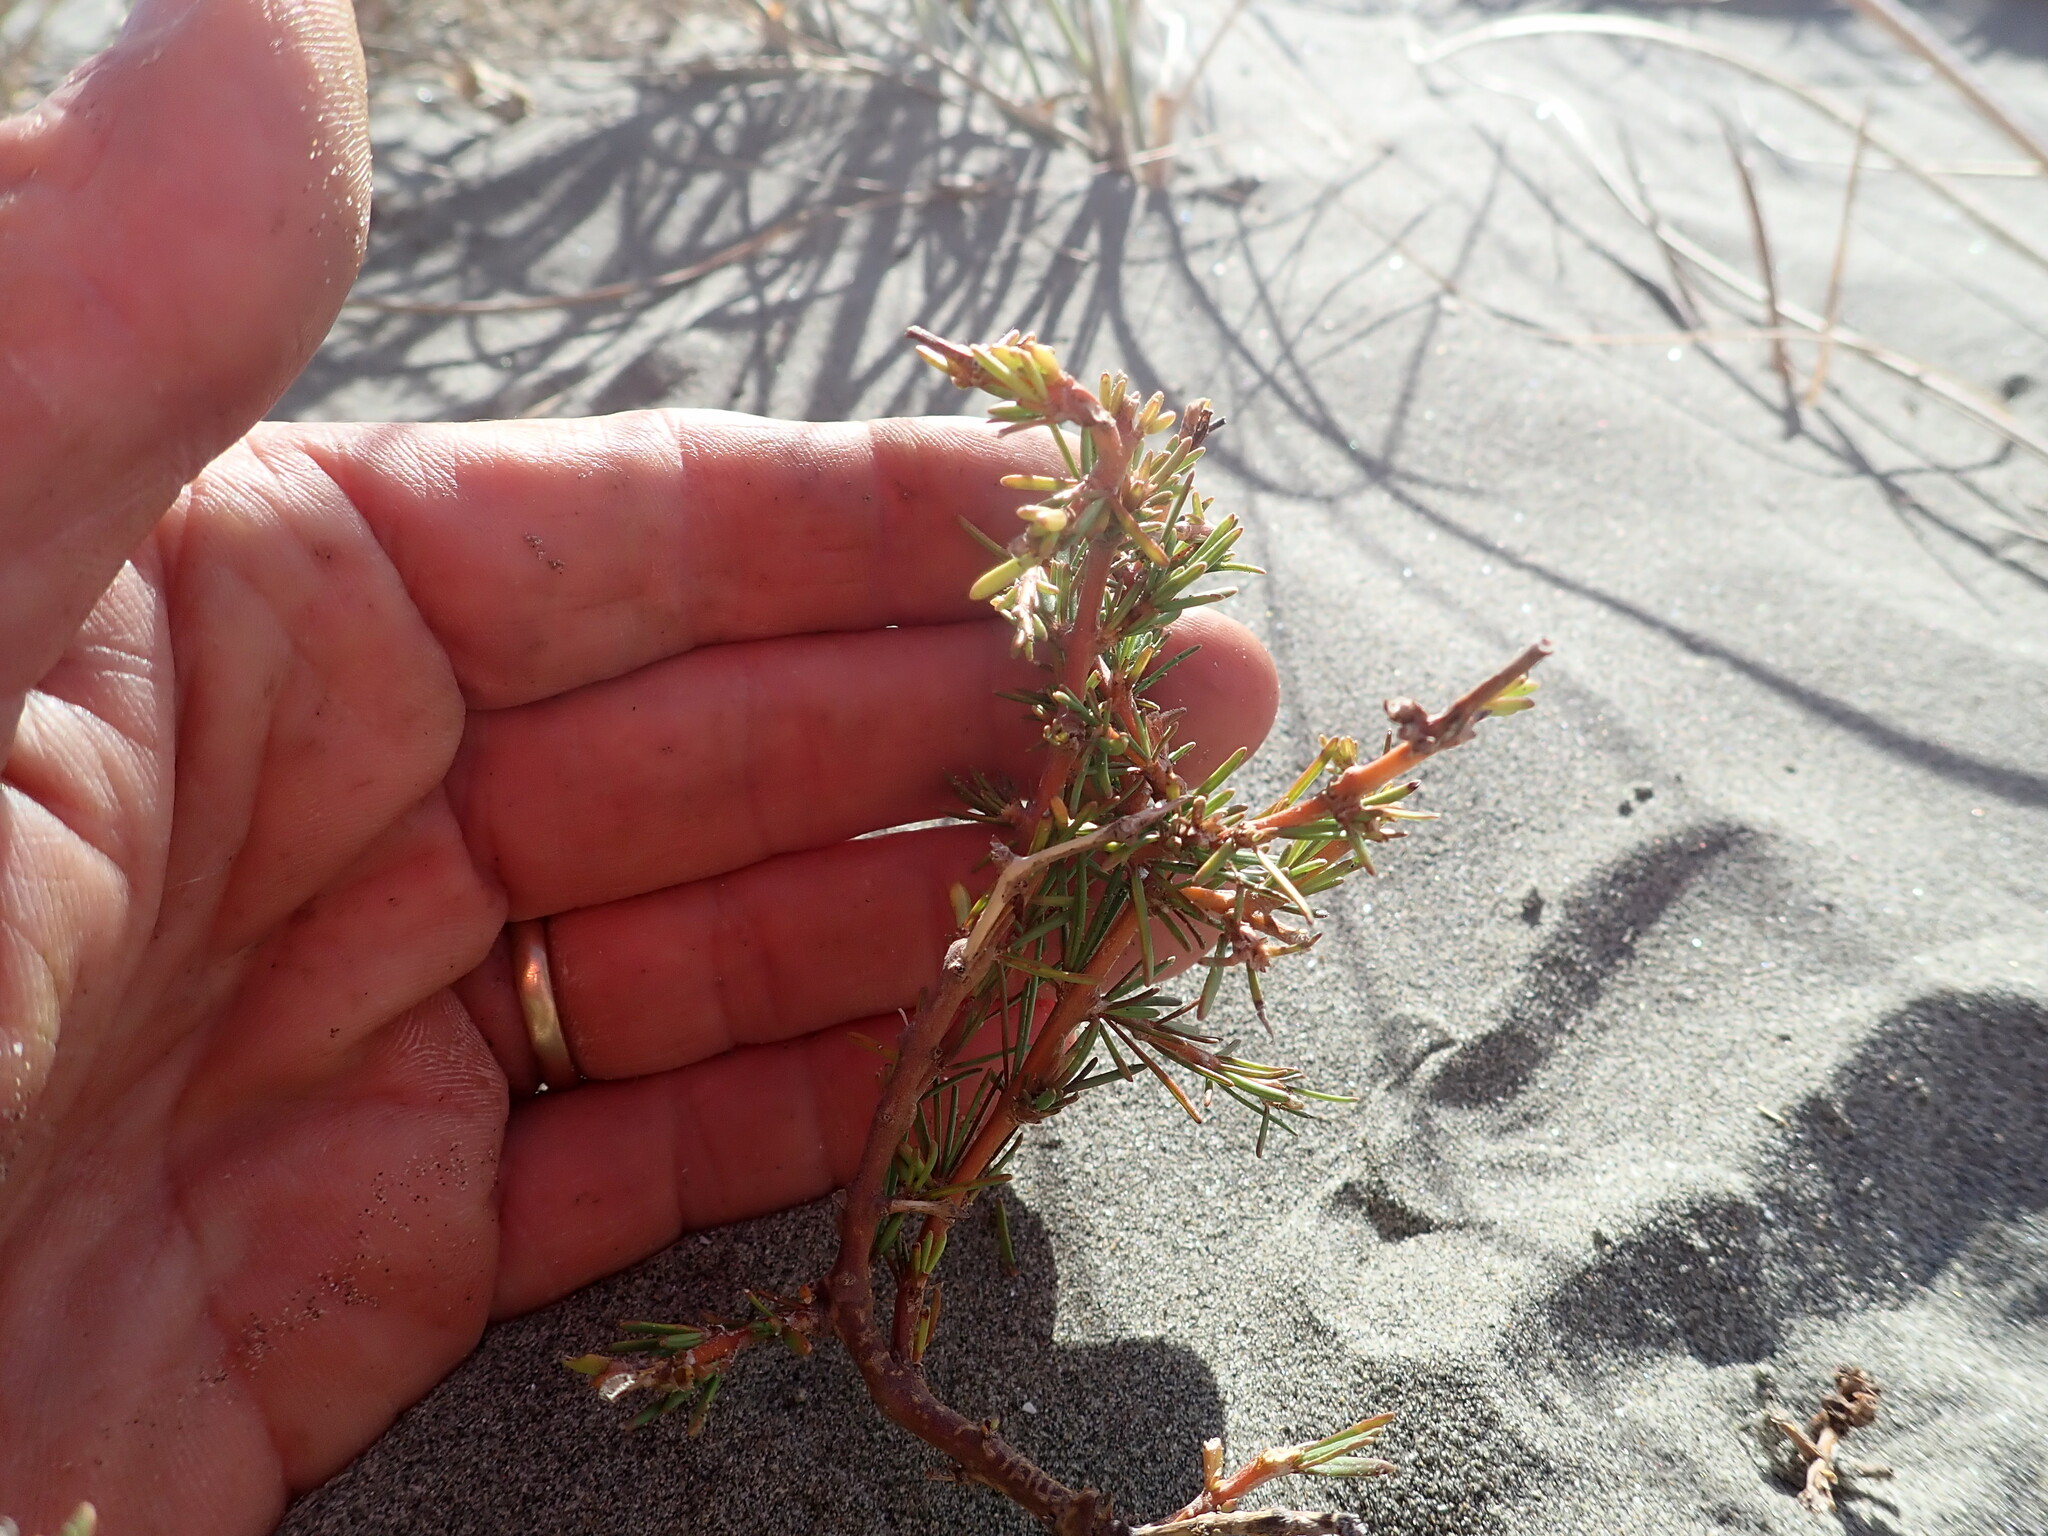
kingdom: Plantae
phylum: Tracheophyta
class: Magnoliopsida
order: Gentianales
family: Rubiaceae
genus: Coprosma
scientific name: Coprosma acerosa
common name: Sand coprosma
